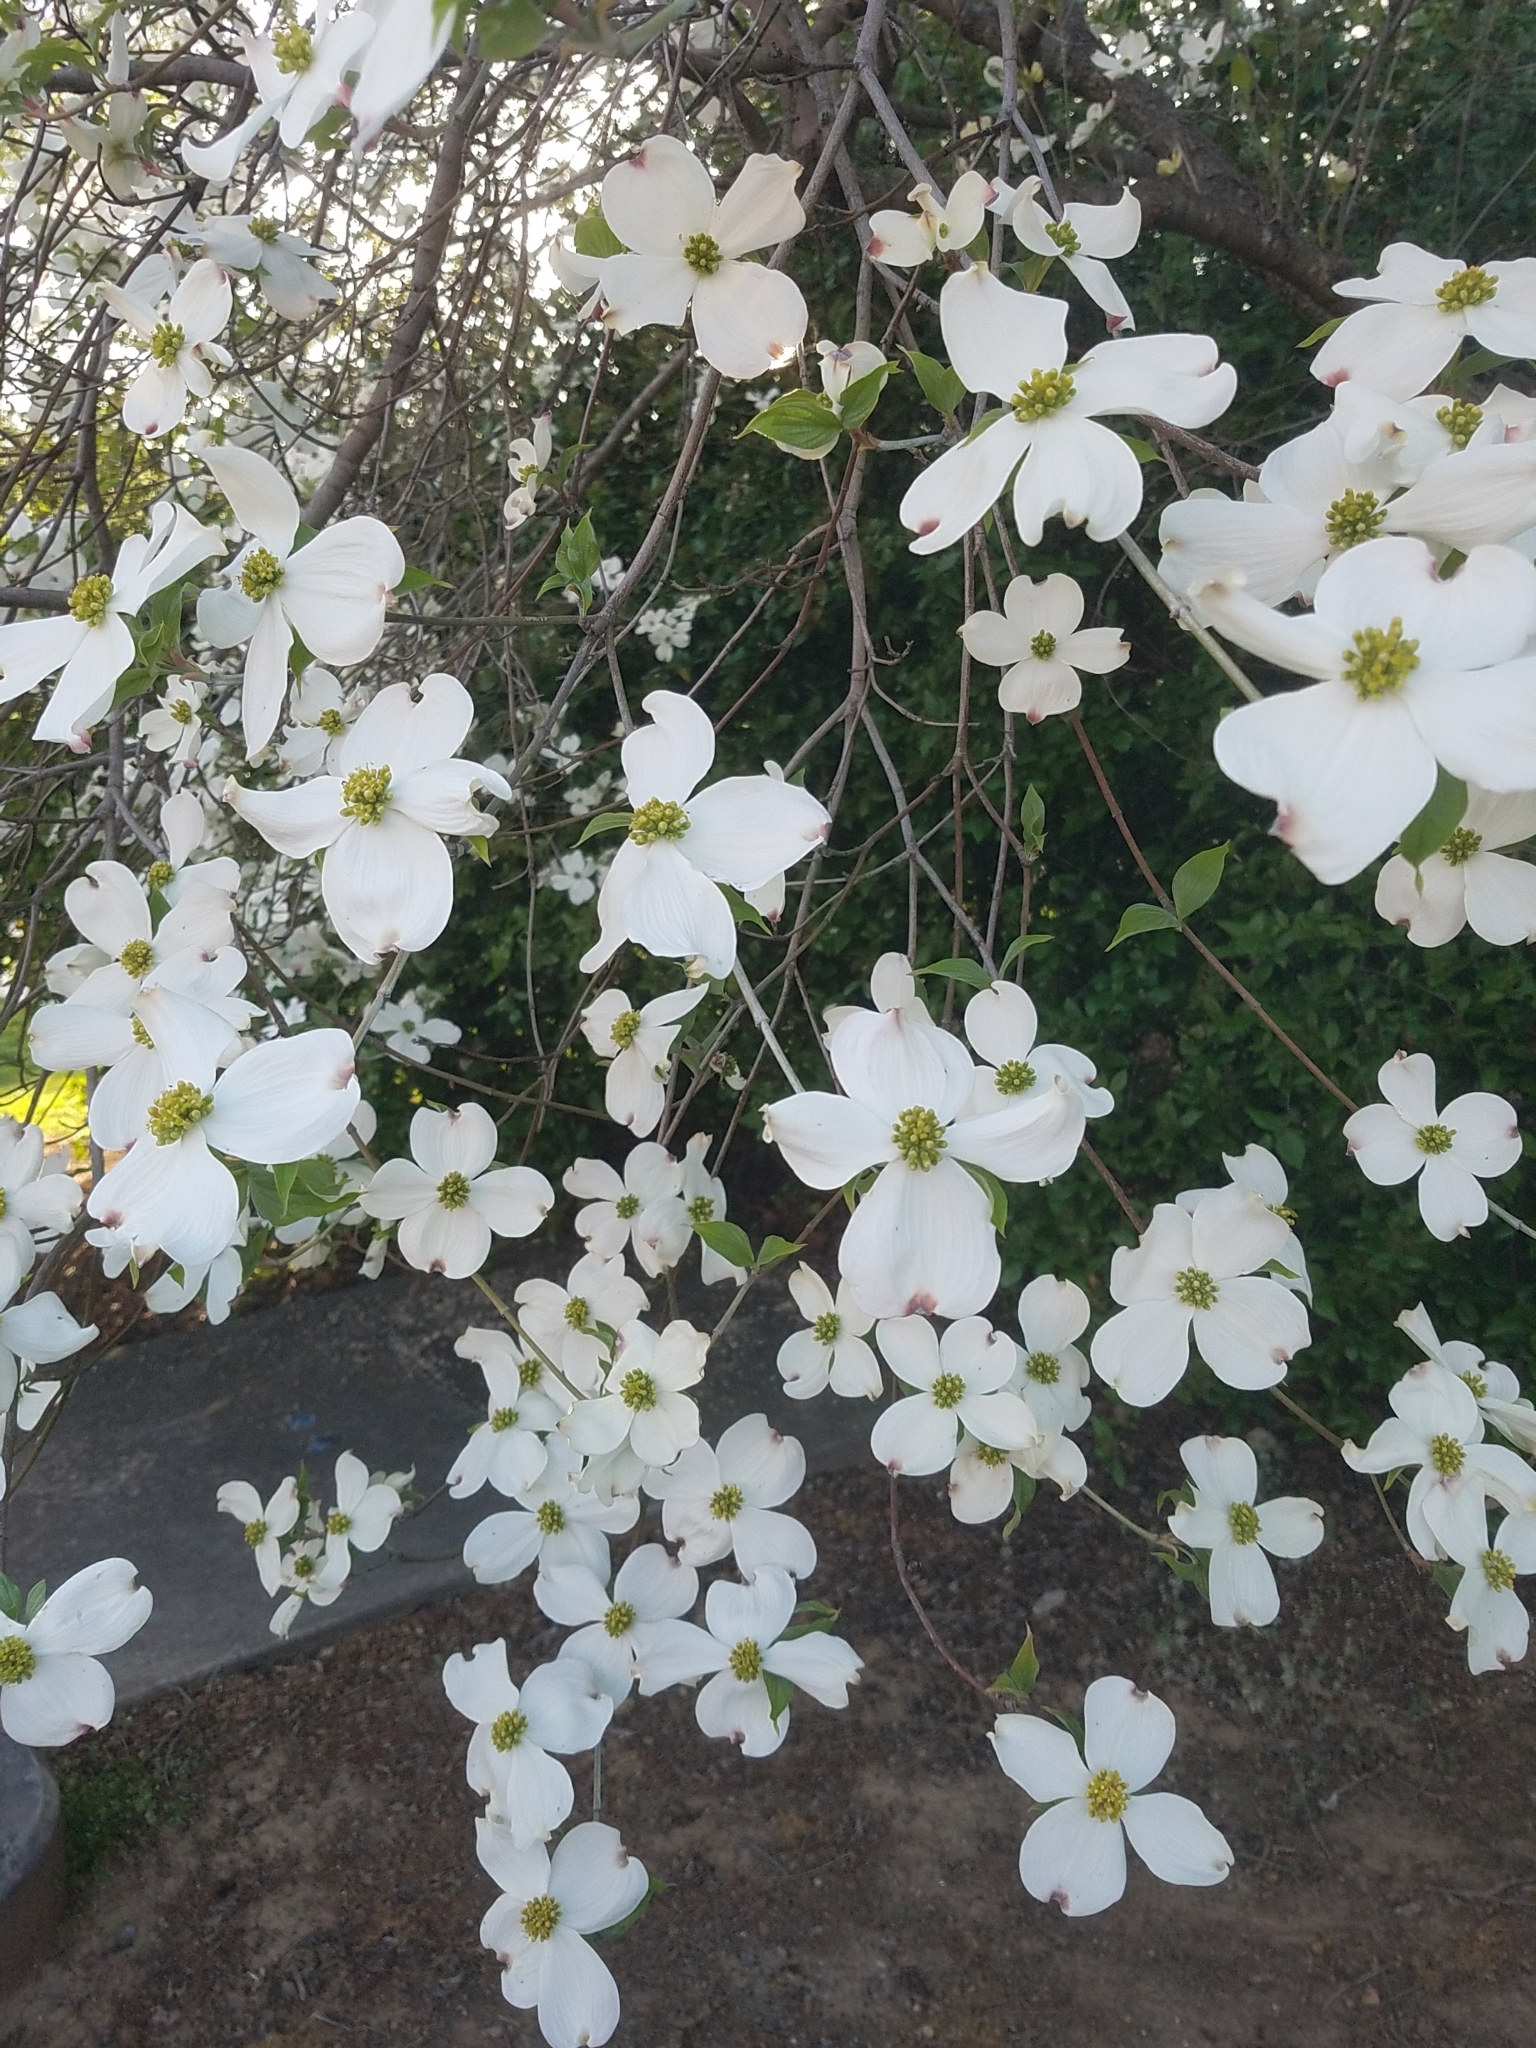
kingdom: Plantae
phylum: Tracheophyta
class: Magnoliopsida
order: Cornales
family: Cornaceae
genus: Cornus
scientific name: Cornus florida
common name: Flowering dogwood
